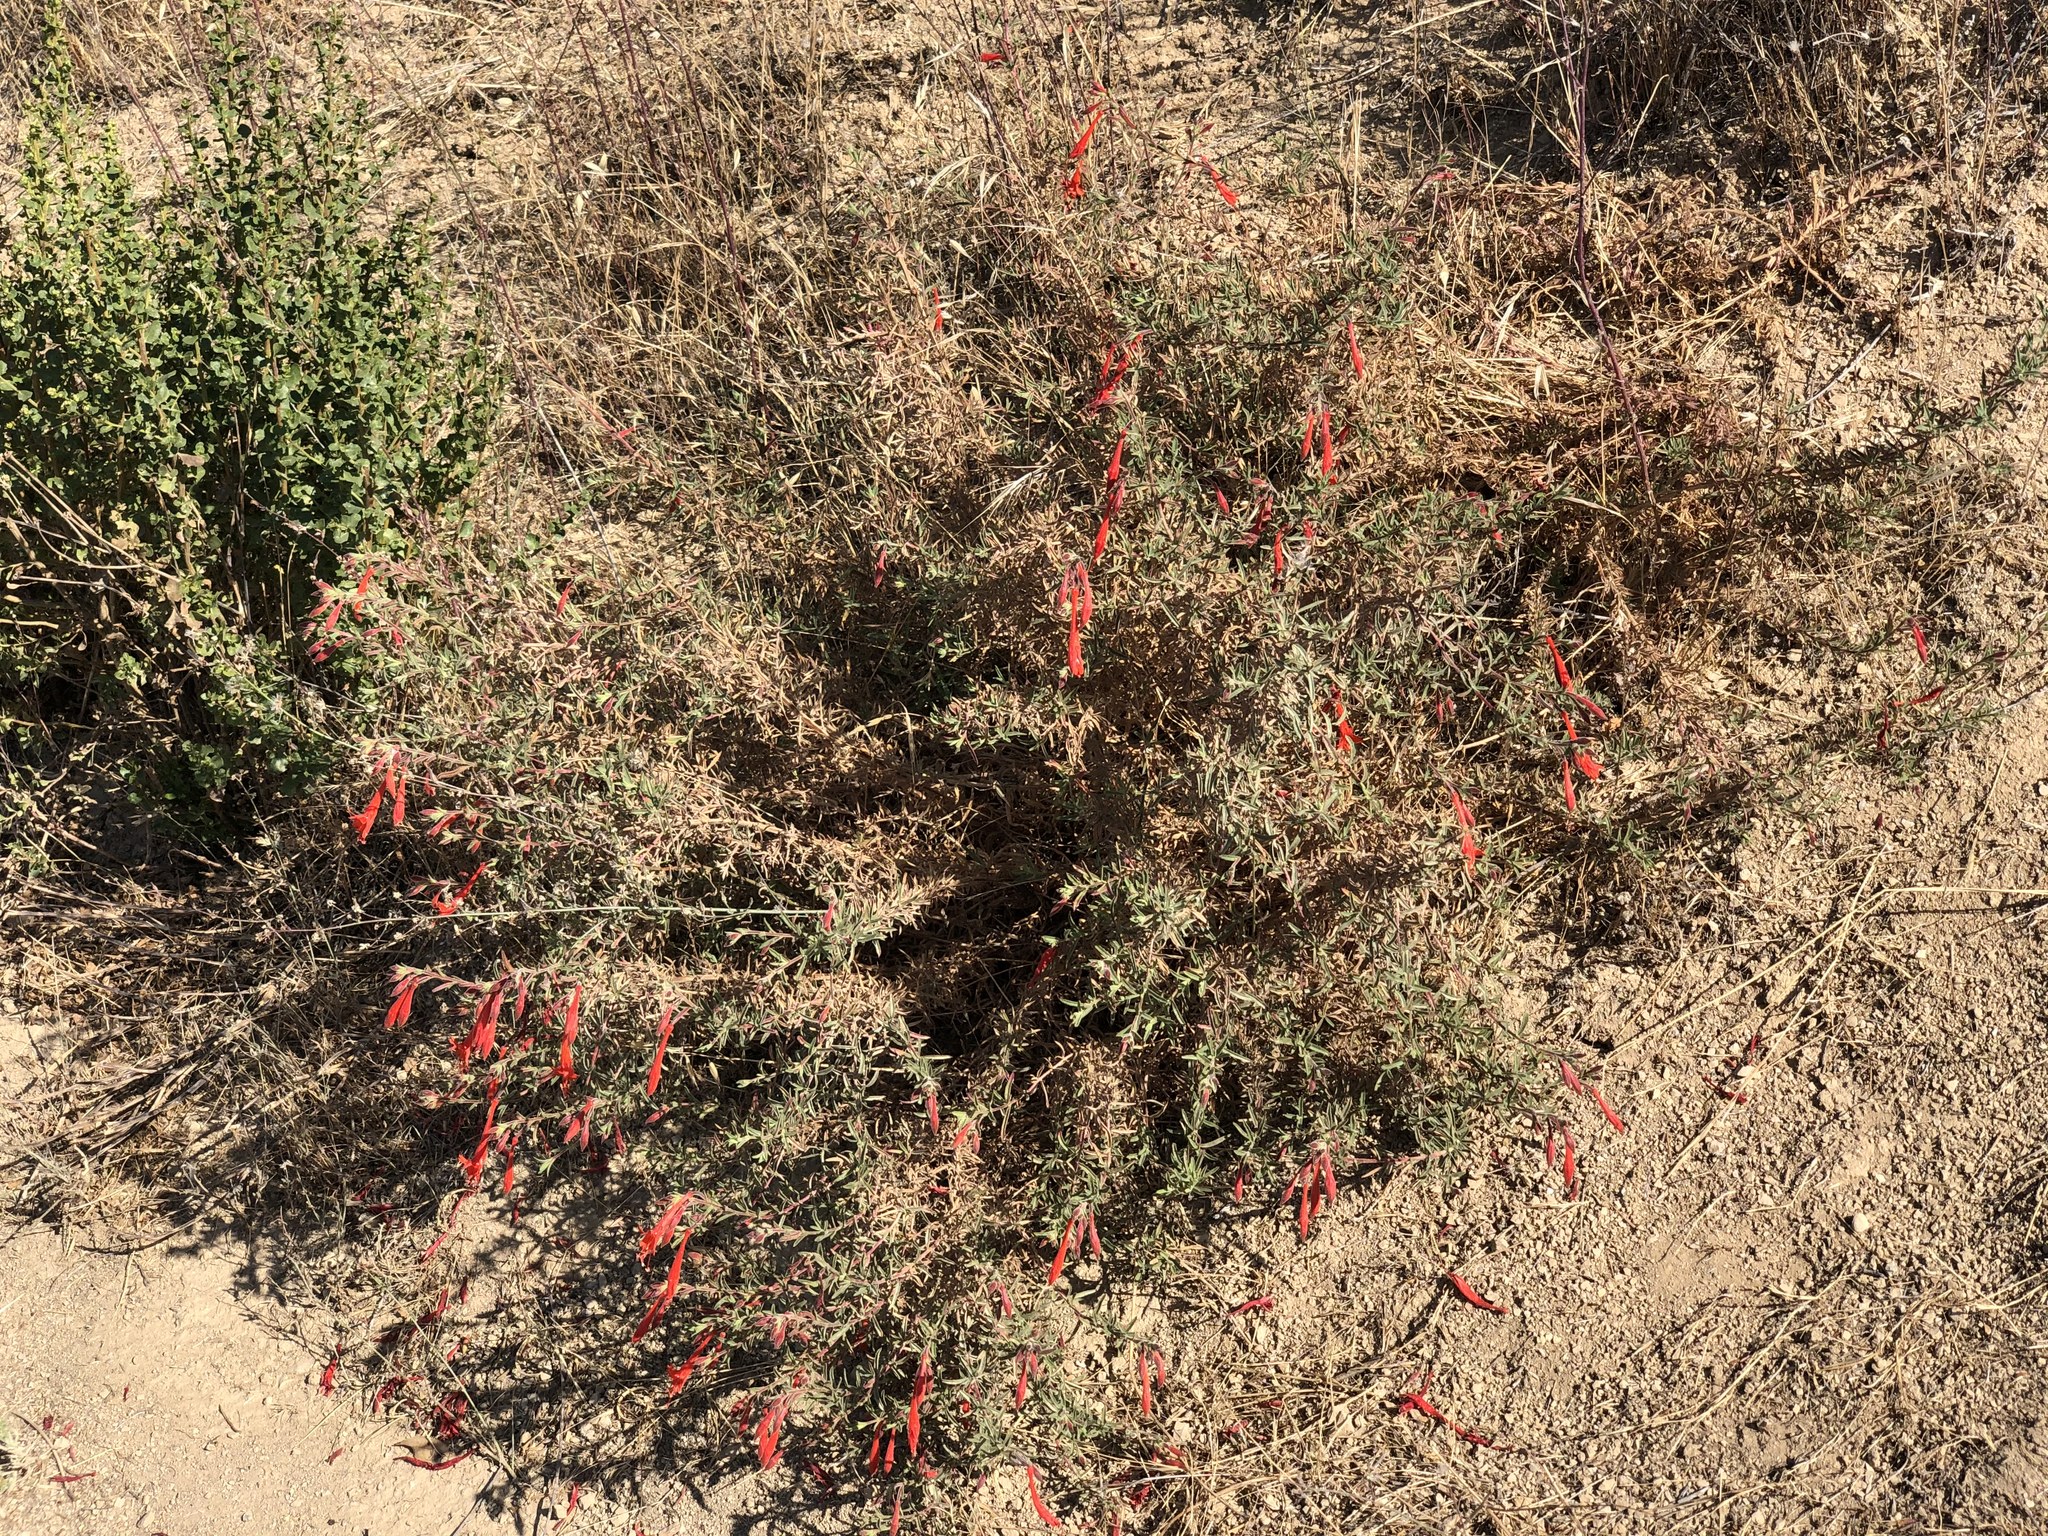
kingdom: Plantae
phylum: Tracheophyta
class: Magnoliopsida
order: Myrtales
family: Onagraceae
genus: Epilobium
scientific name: Epilobium canum
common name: California-fuchsia
